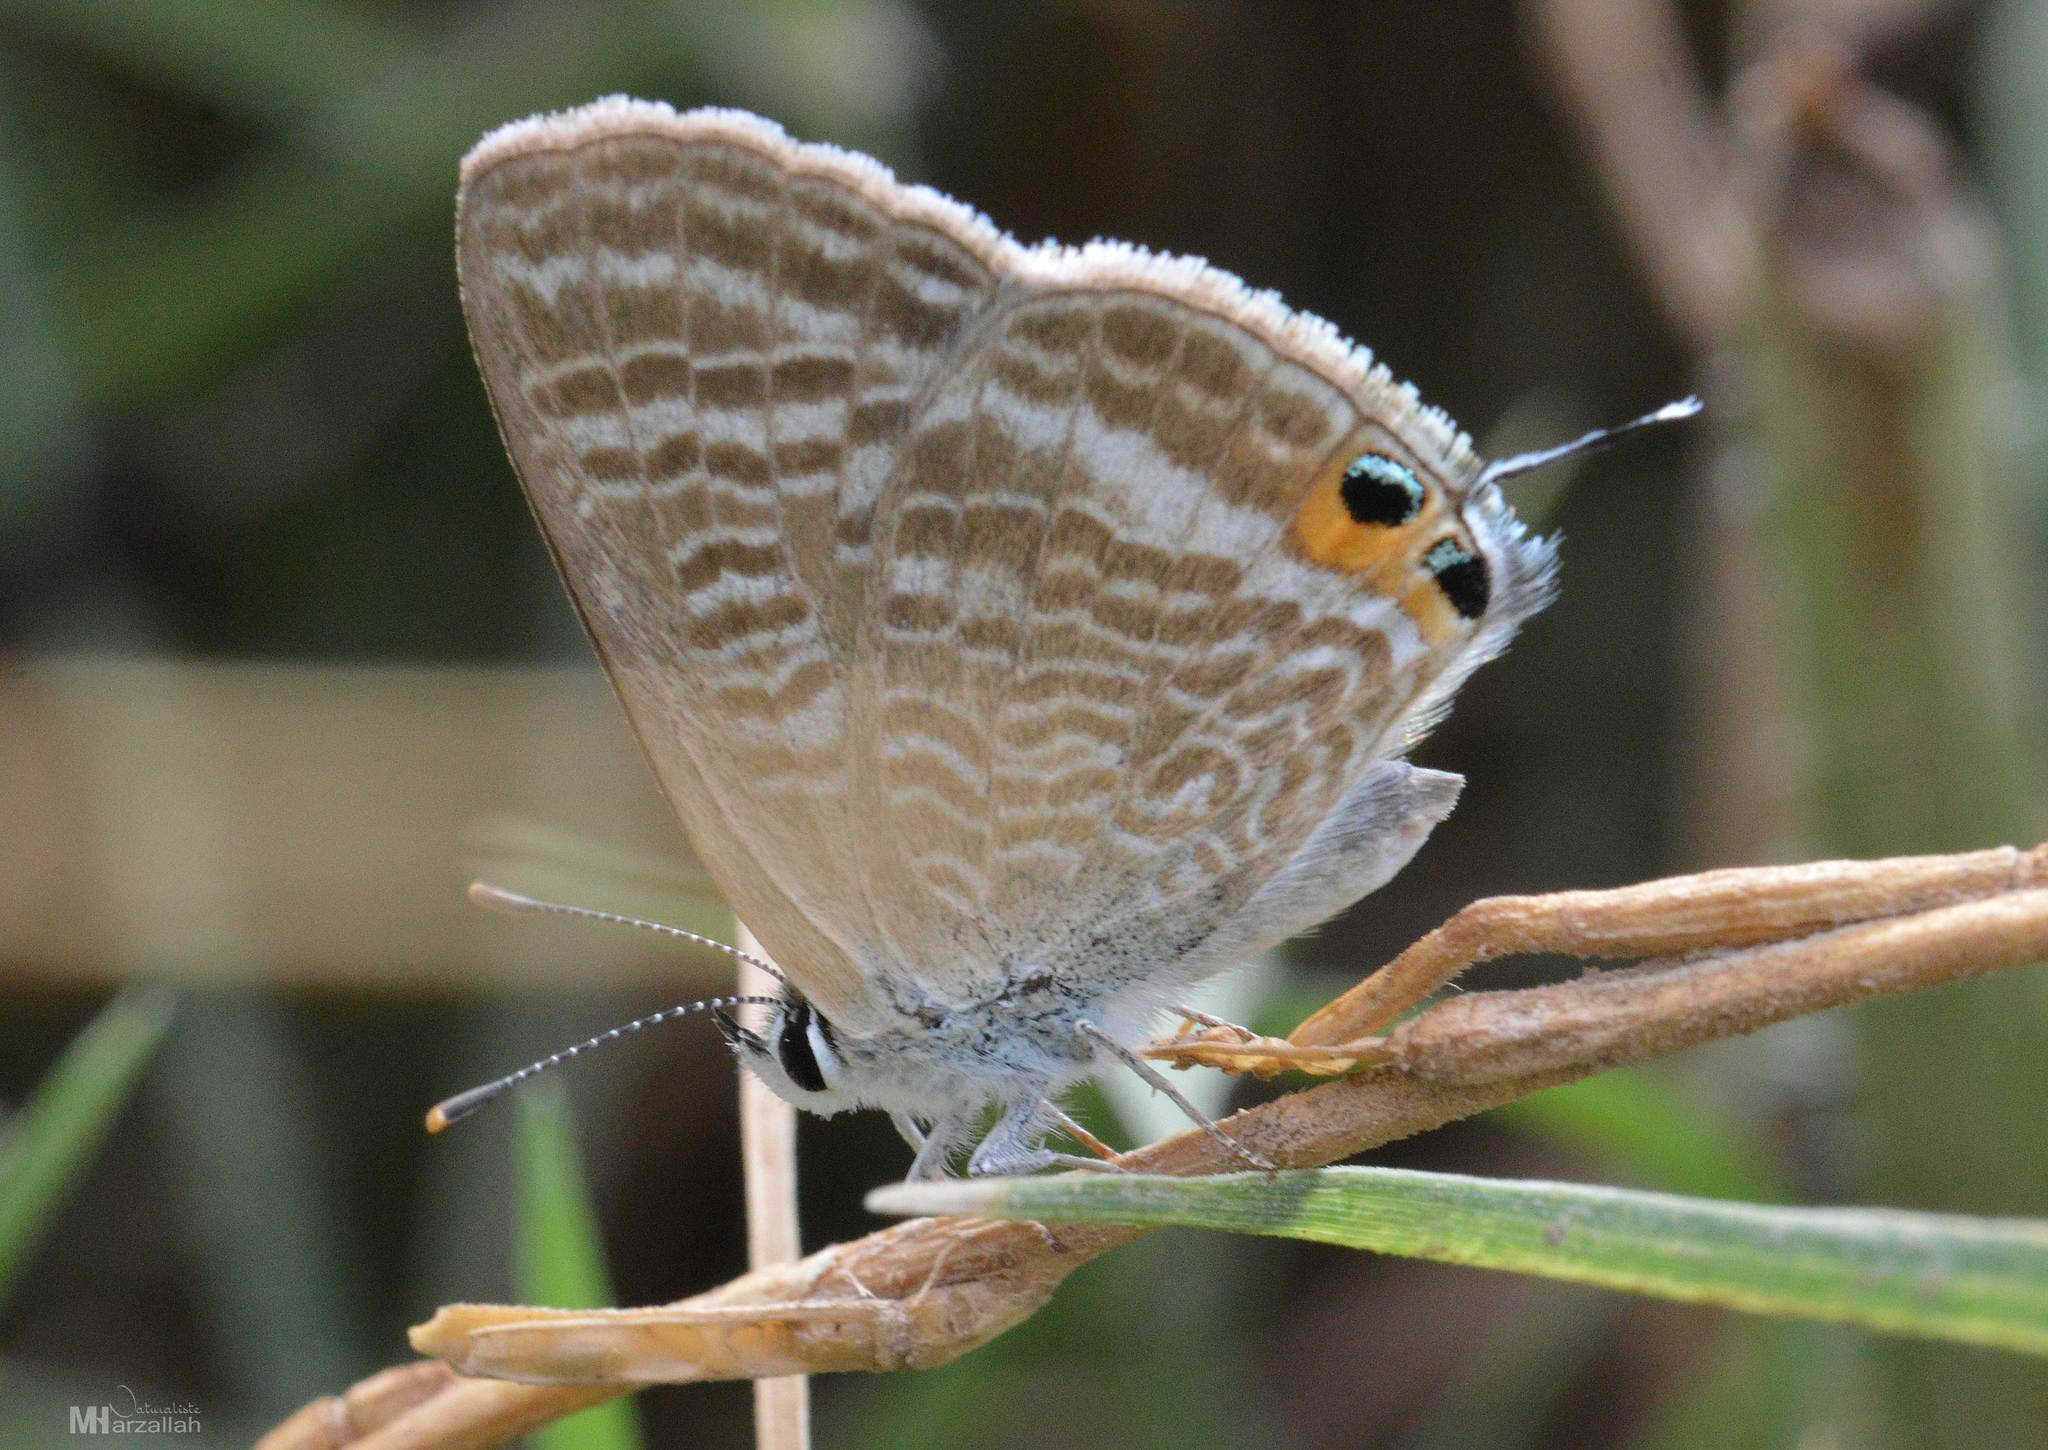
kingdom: Animalia
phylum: Arthropoda
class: Insecta
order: Lepidoptera
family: Lycaenidae
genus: Lampides
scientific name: Lampides boeticus
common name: Long-tailed blue
